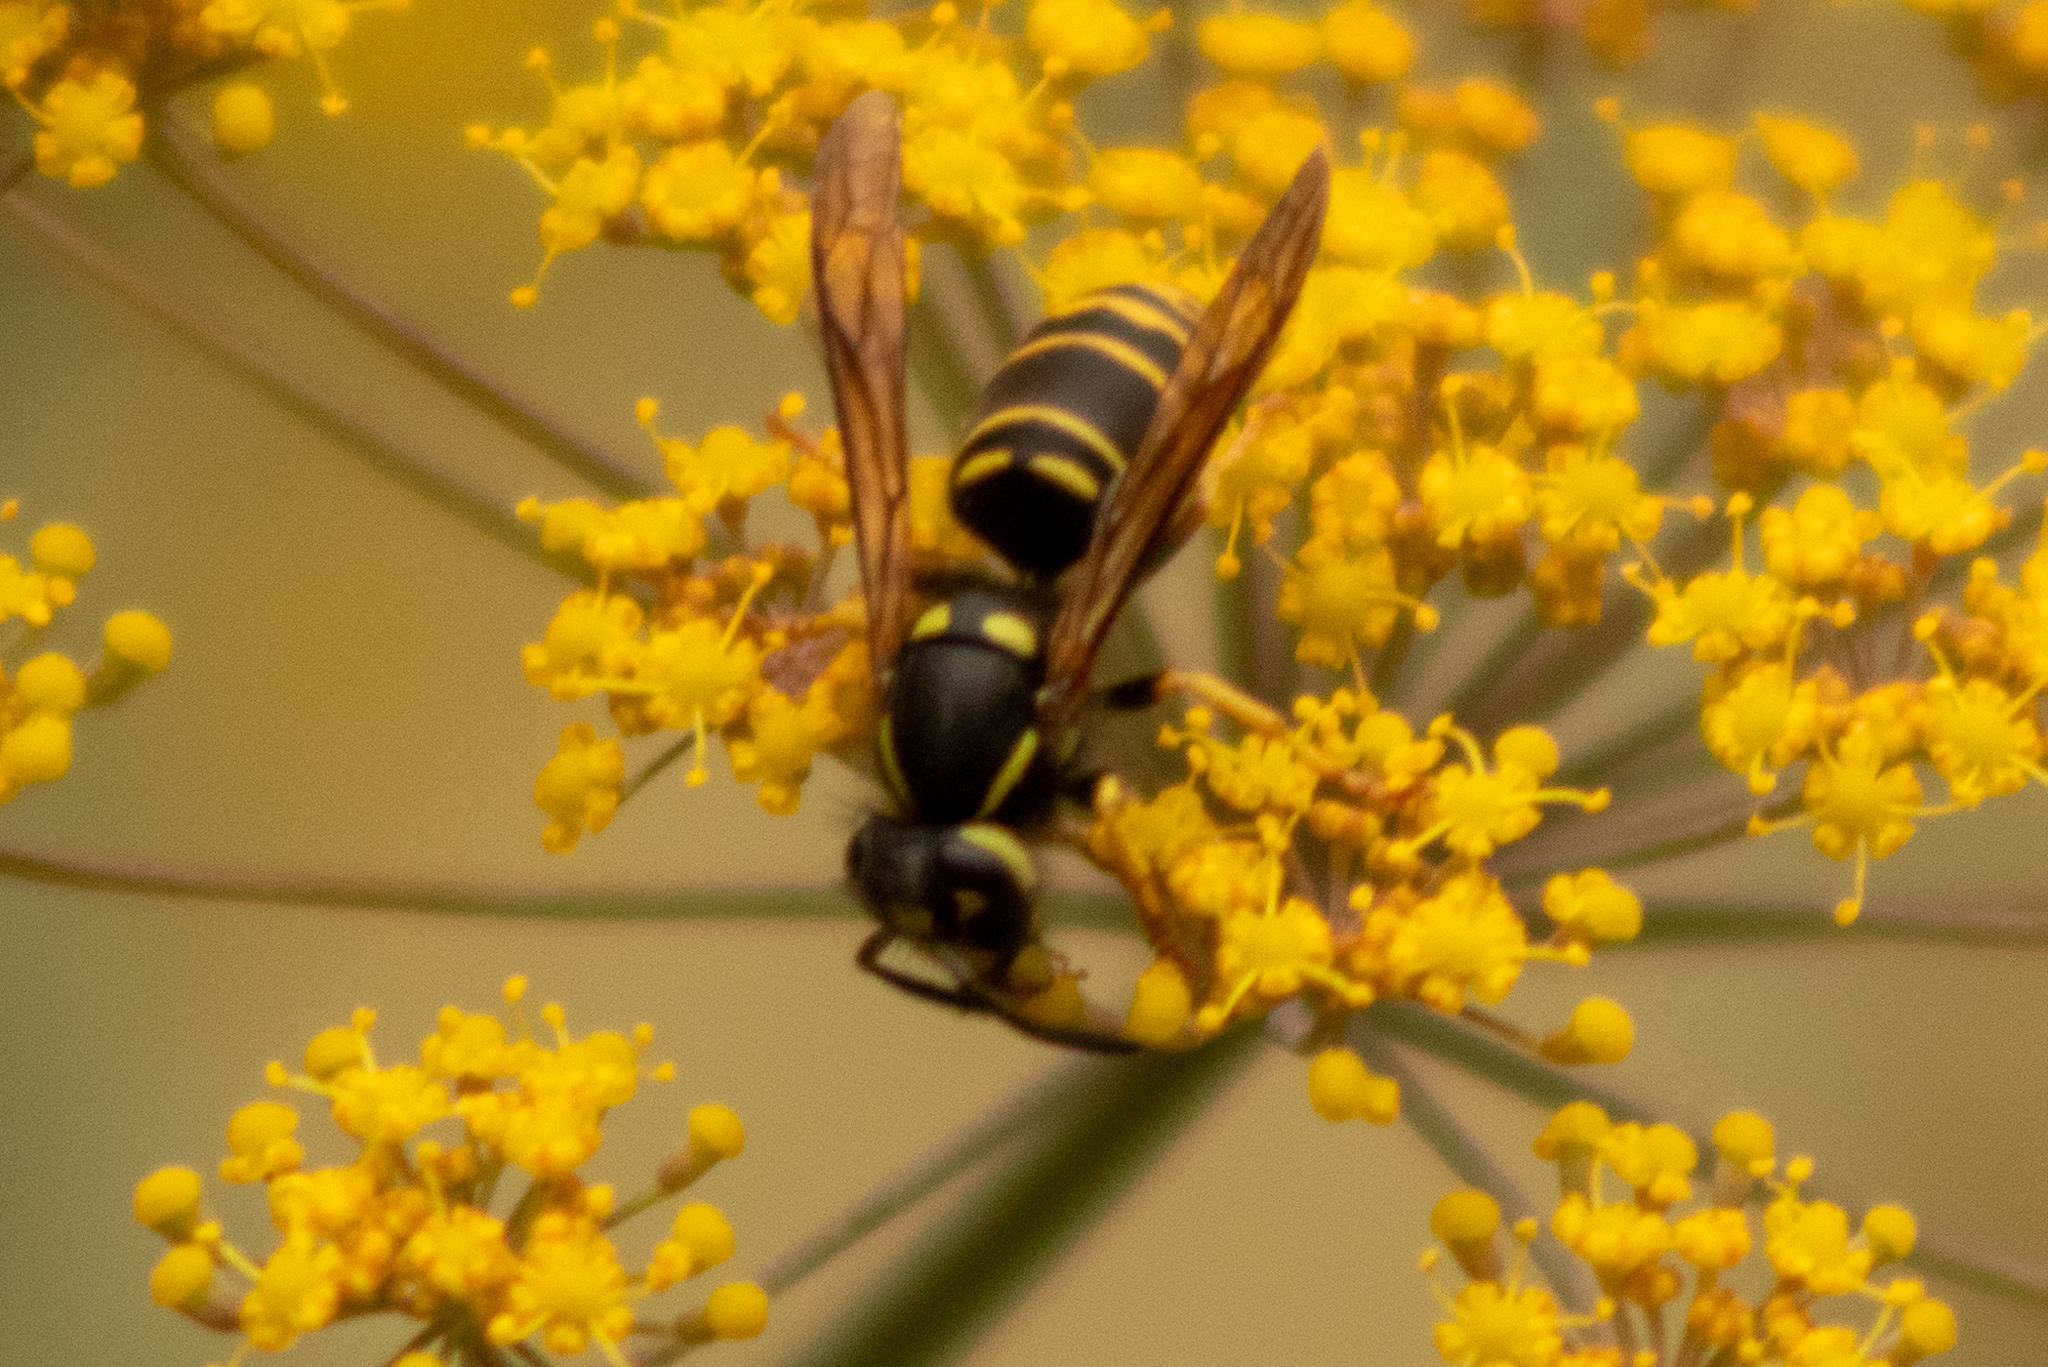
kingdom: Animalia
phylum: Arthropoda
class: Insecta
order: Hymenoptera
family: Vespidae
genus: Vespula
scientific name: Vespula vidua
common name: Widow yellowjacket
